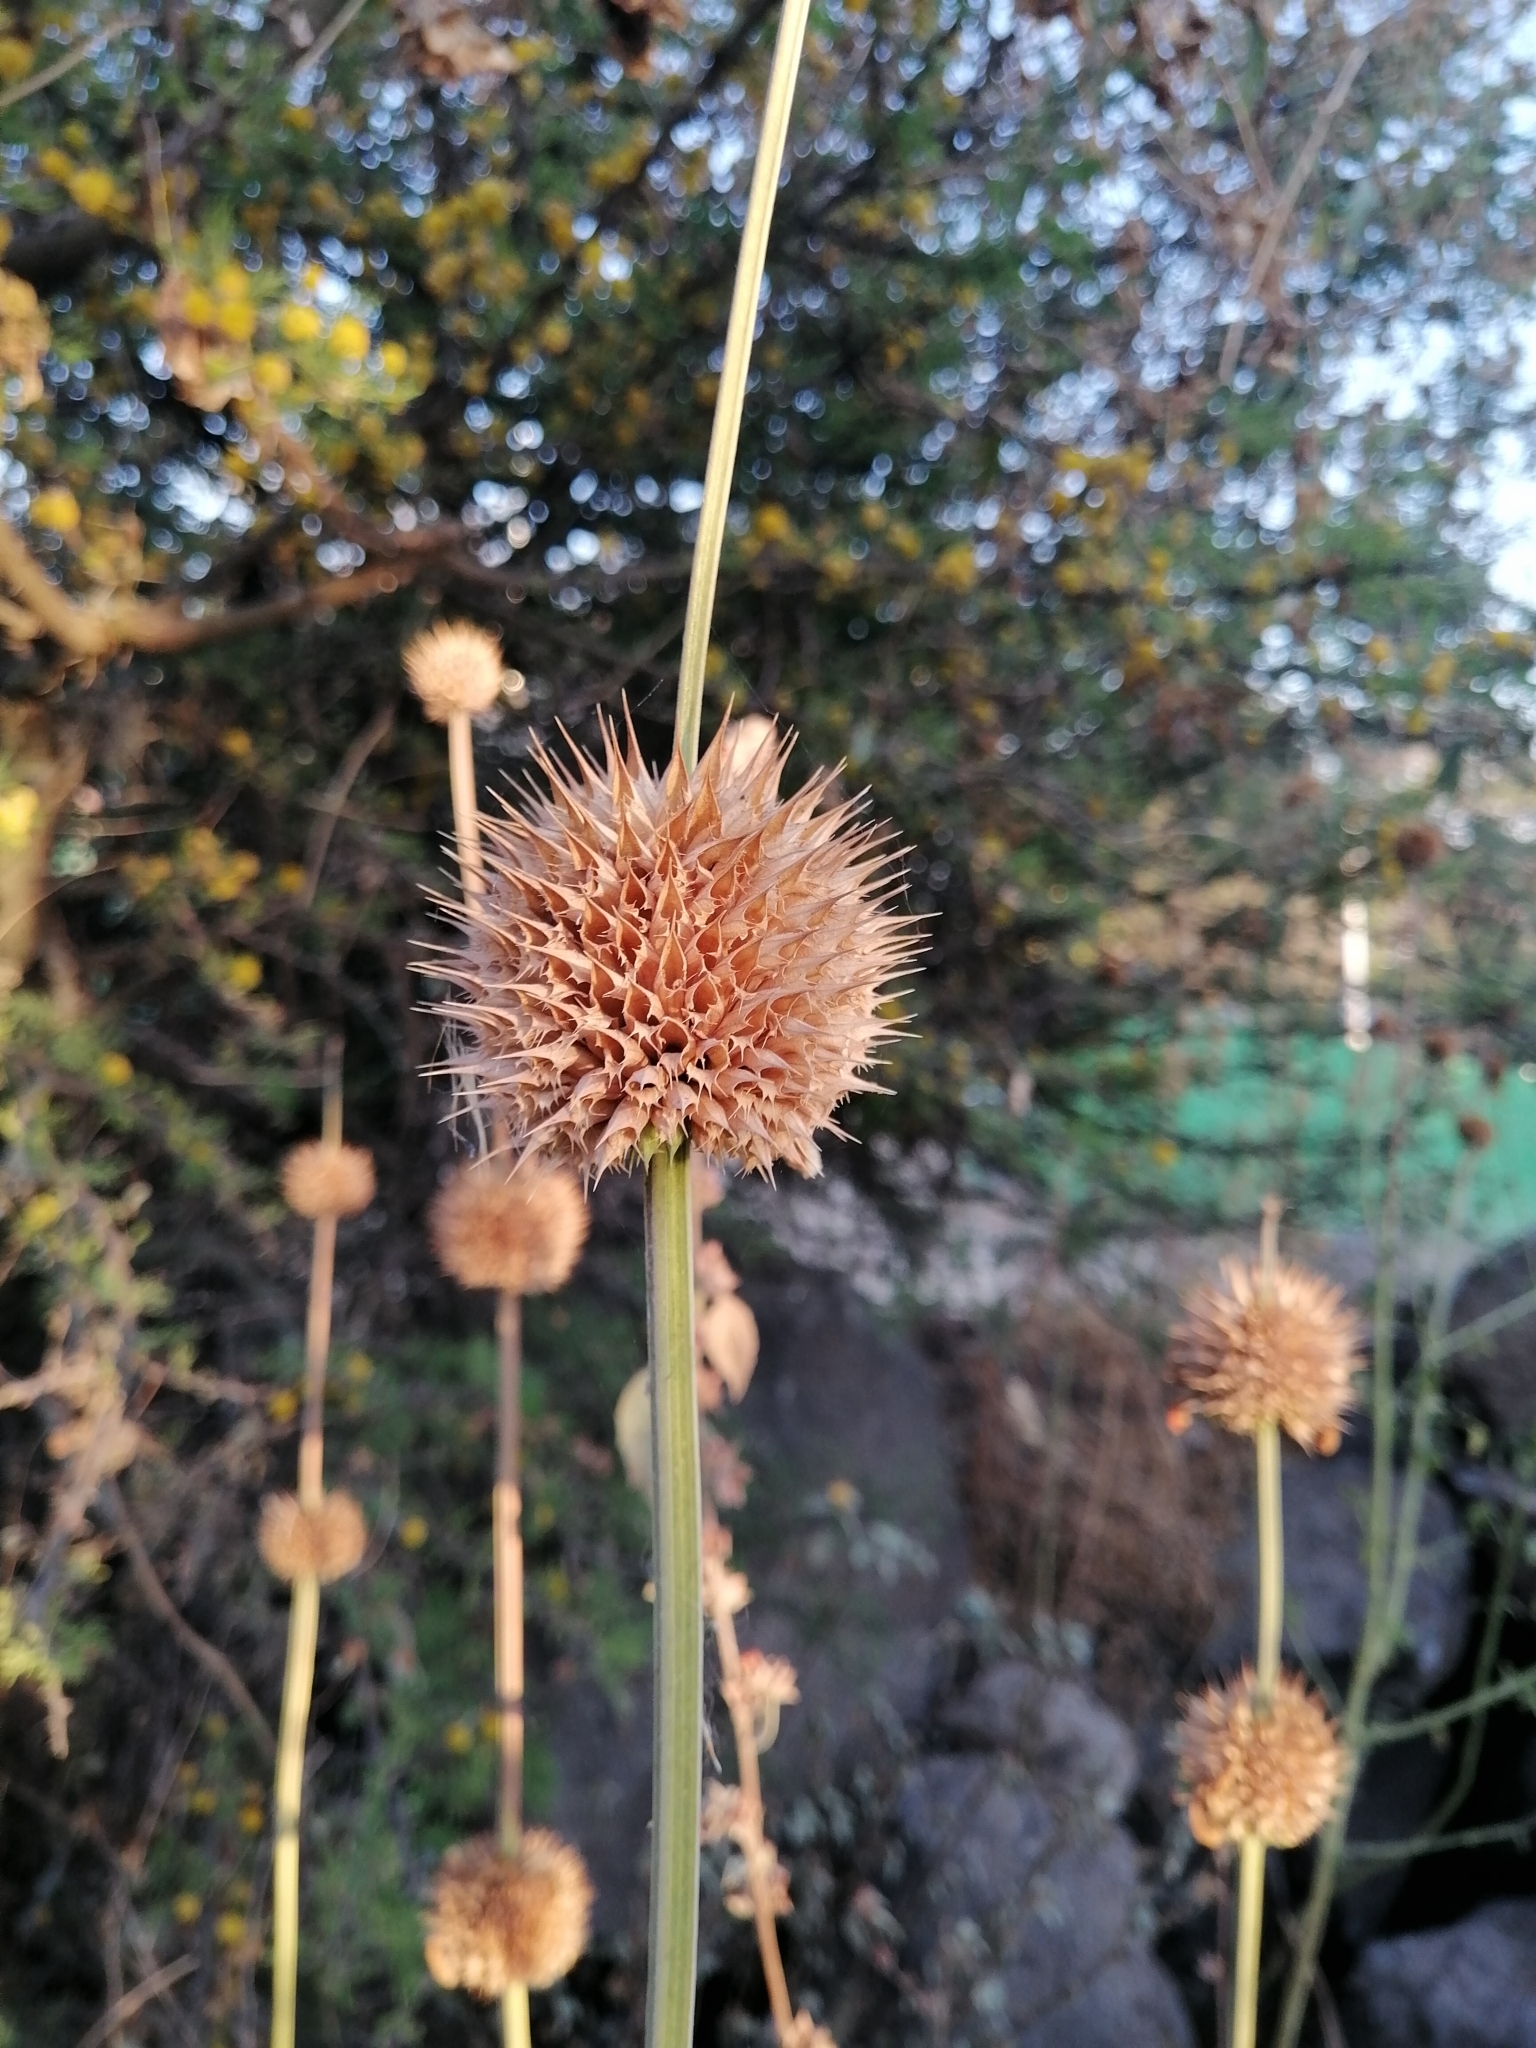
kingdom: Plantae
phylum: Tracheophyta
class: Magnoliopsida
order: Lamiales
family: Lamiaceae
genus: Leonotis
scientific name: Leonotis nepetifolia
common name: Christmas candlestick
